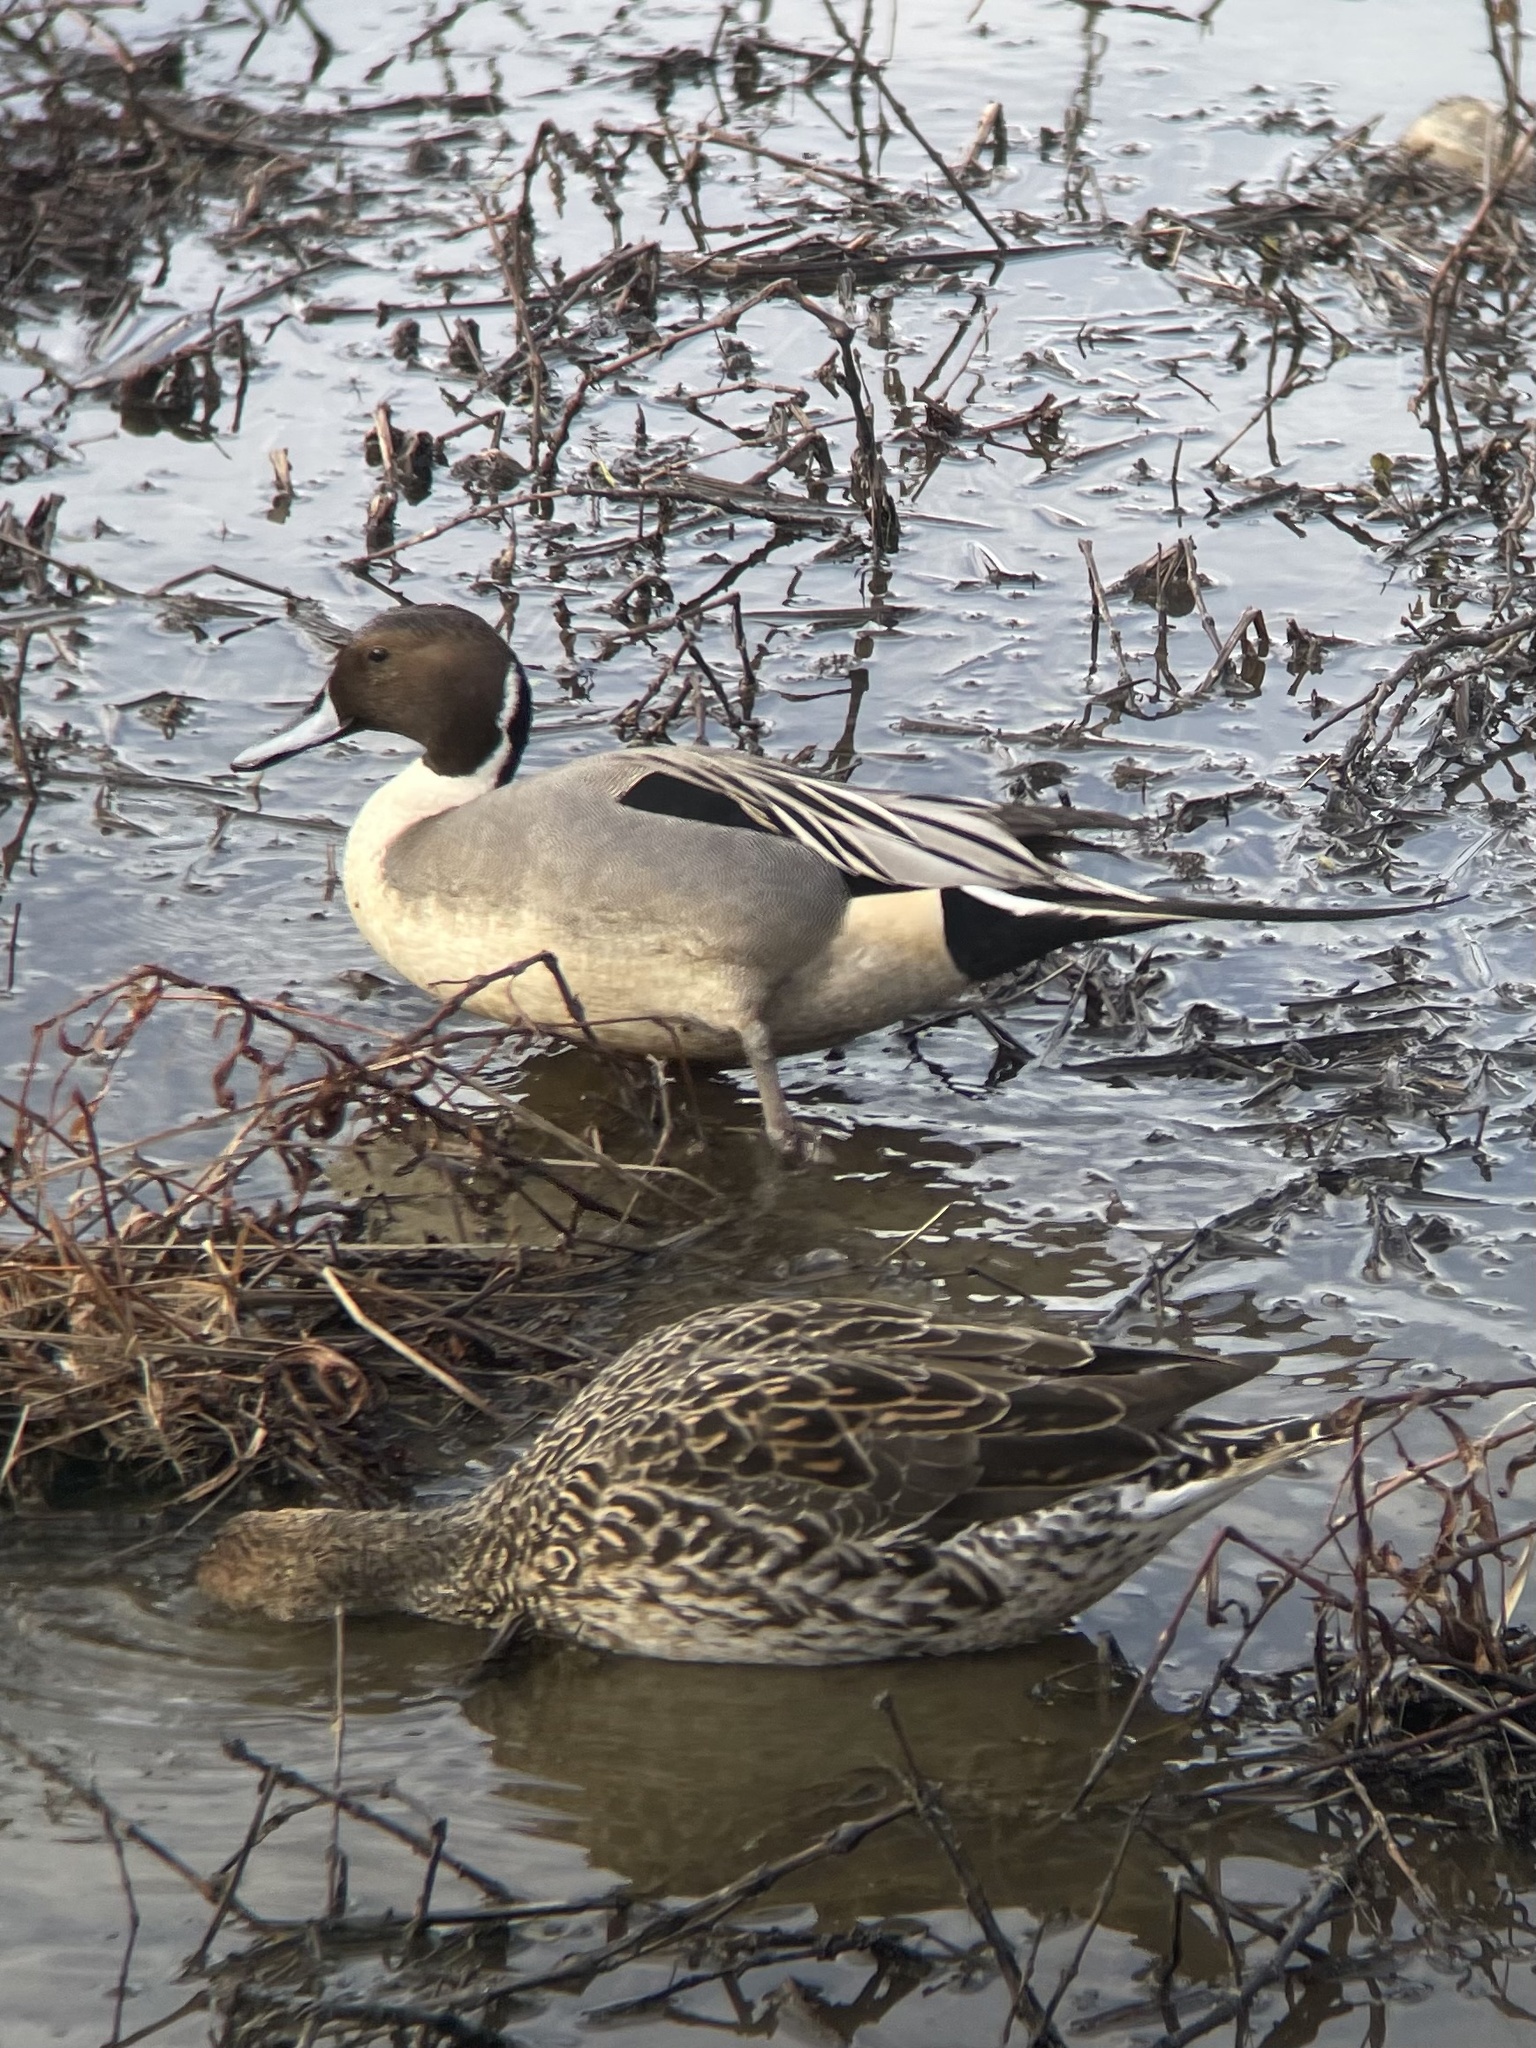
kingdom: Animalia
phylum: Chordata
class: Aves
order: Anseriformes
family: Anatidae
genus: Anas
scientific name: Anas acuta
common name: Northern pintail
